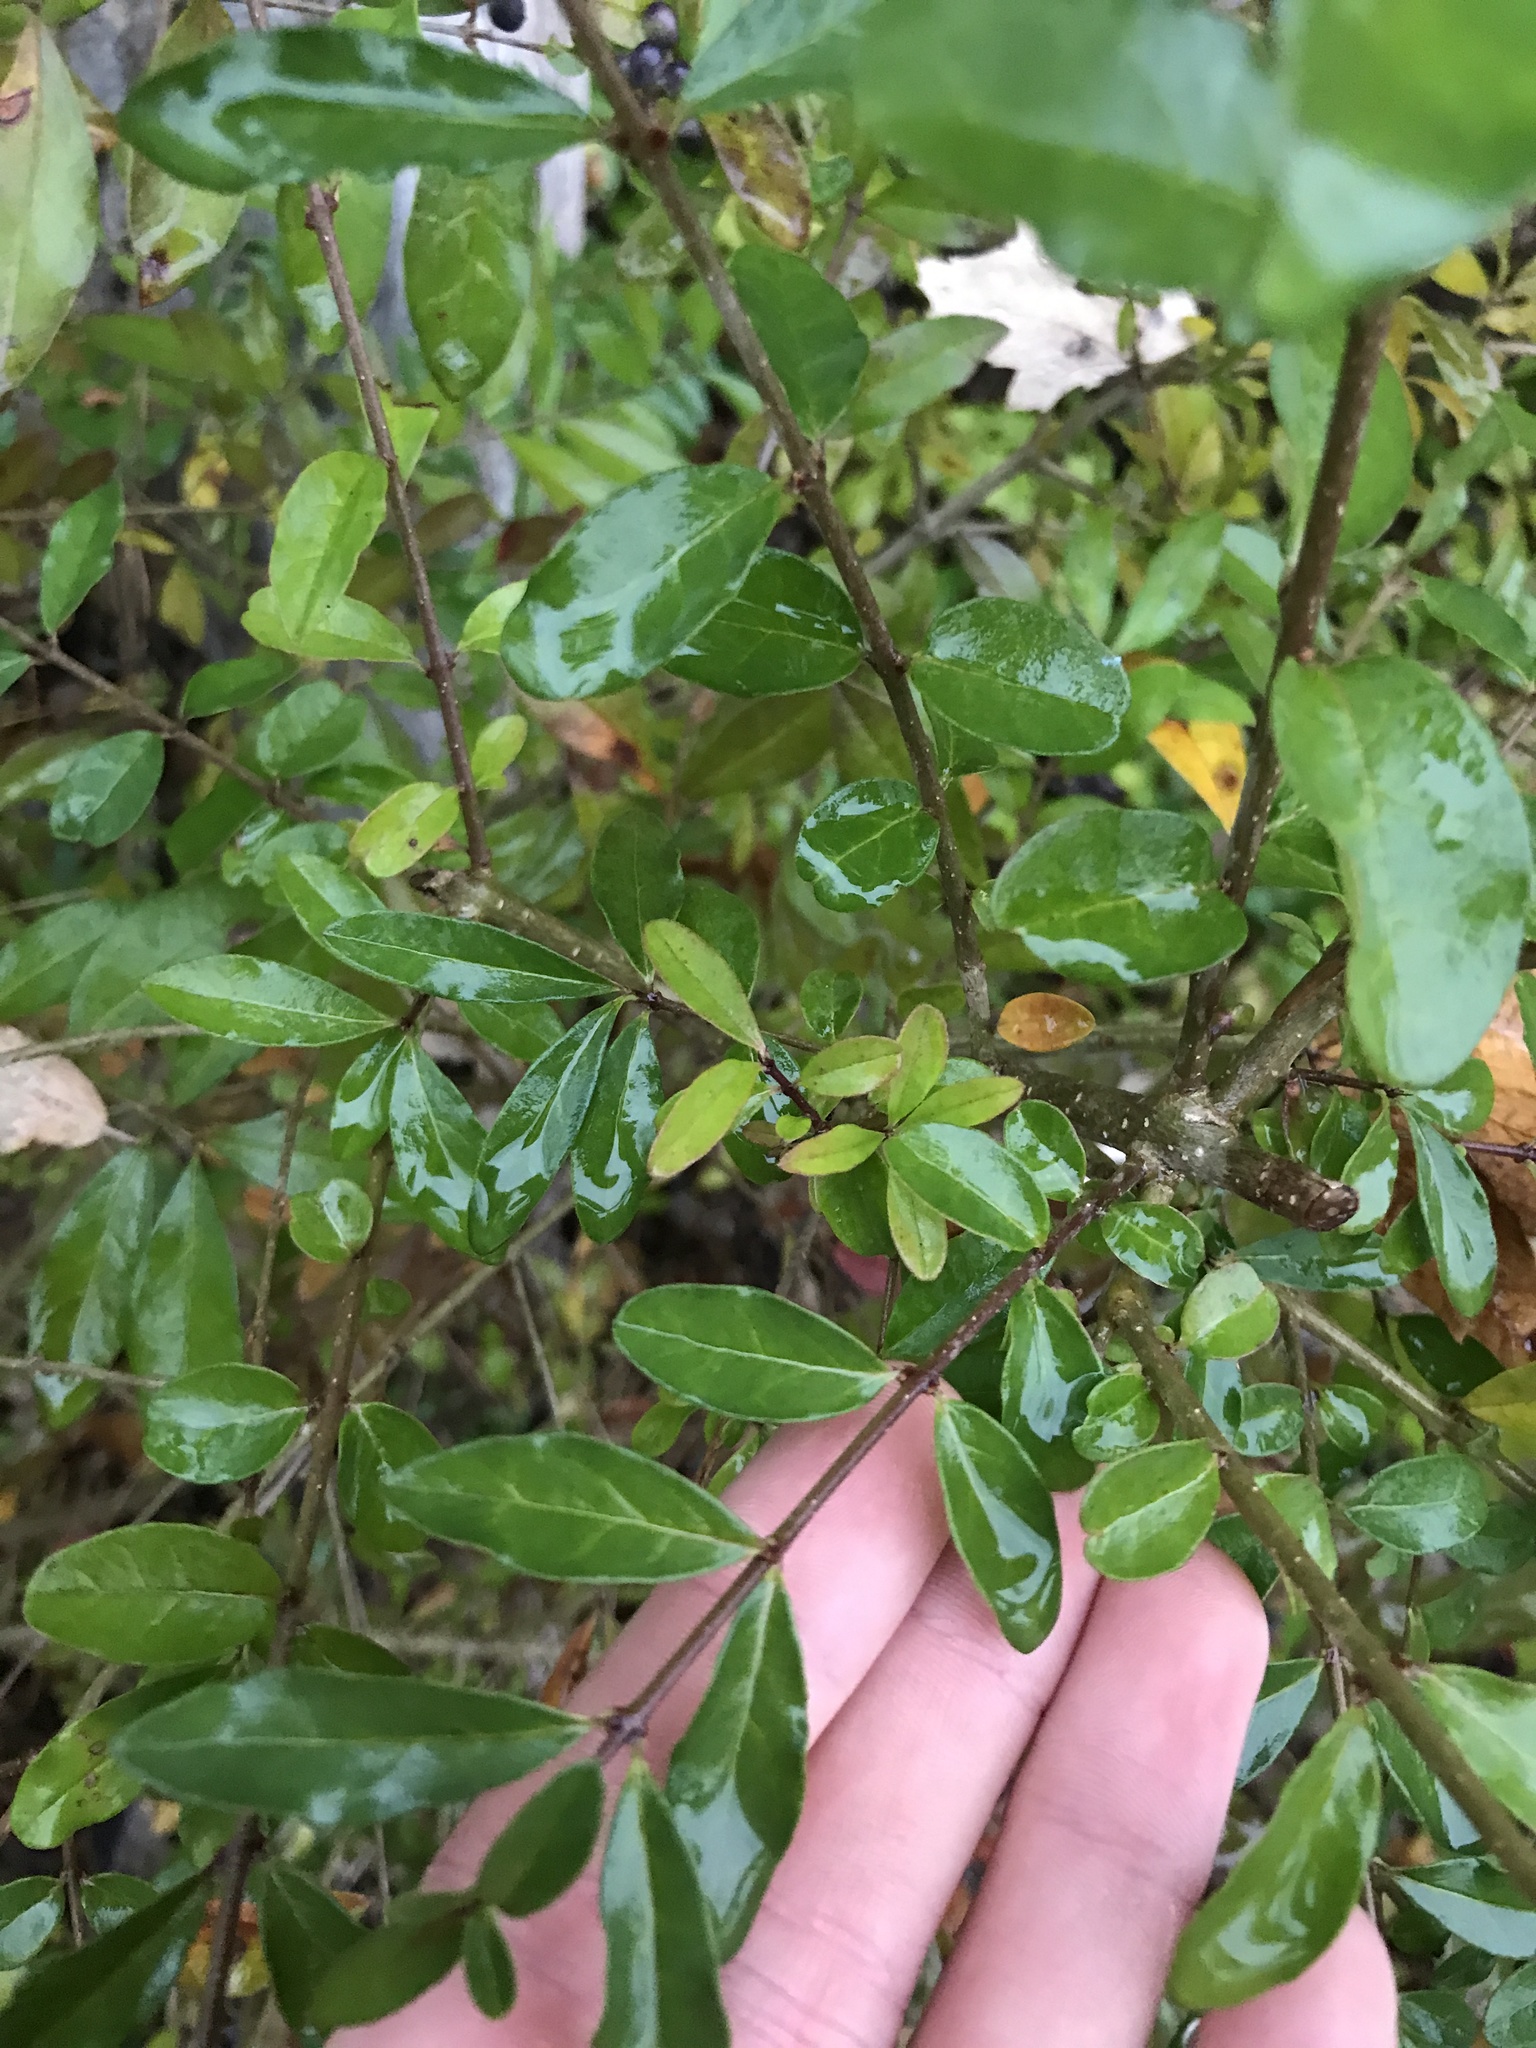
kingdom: Plantae
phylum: Tracheophyta
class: Magnoliopsida
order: Lamiales
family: Oleaceae
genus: Ligustrum
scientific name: Ligustrum obtusifolium
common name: Border privet
